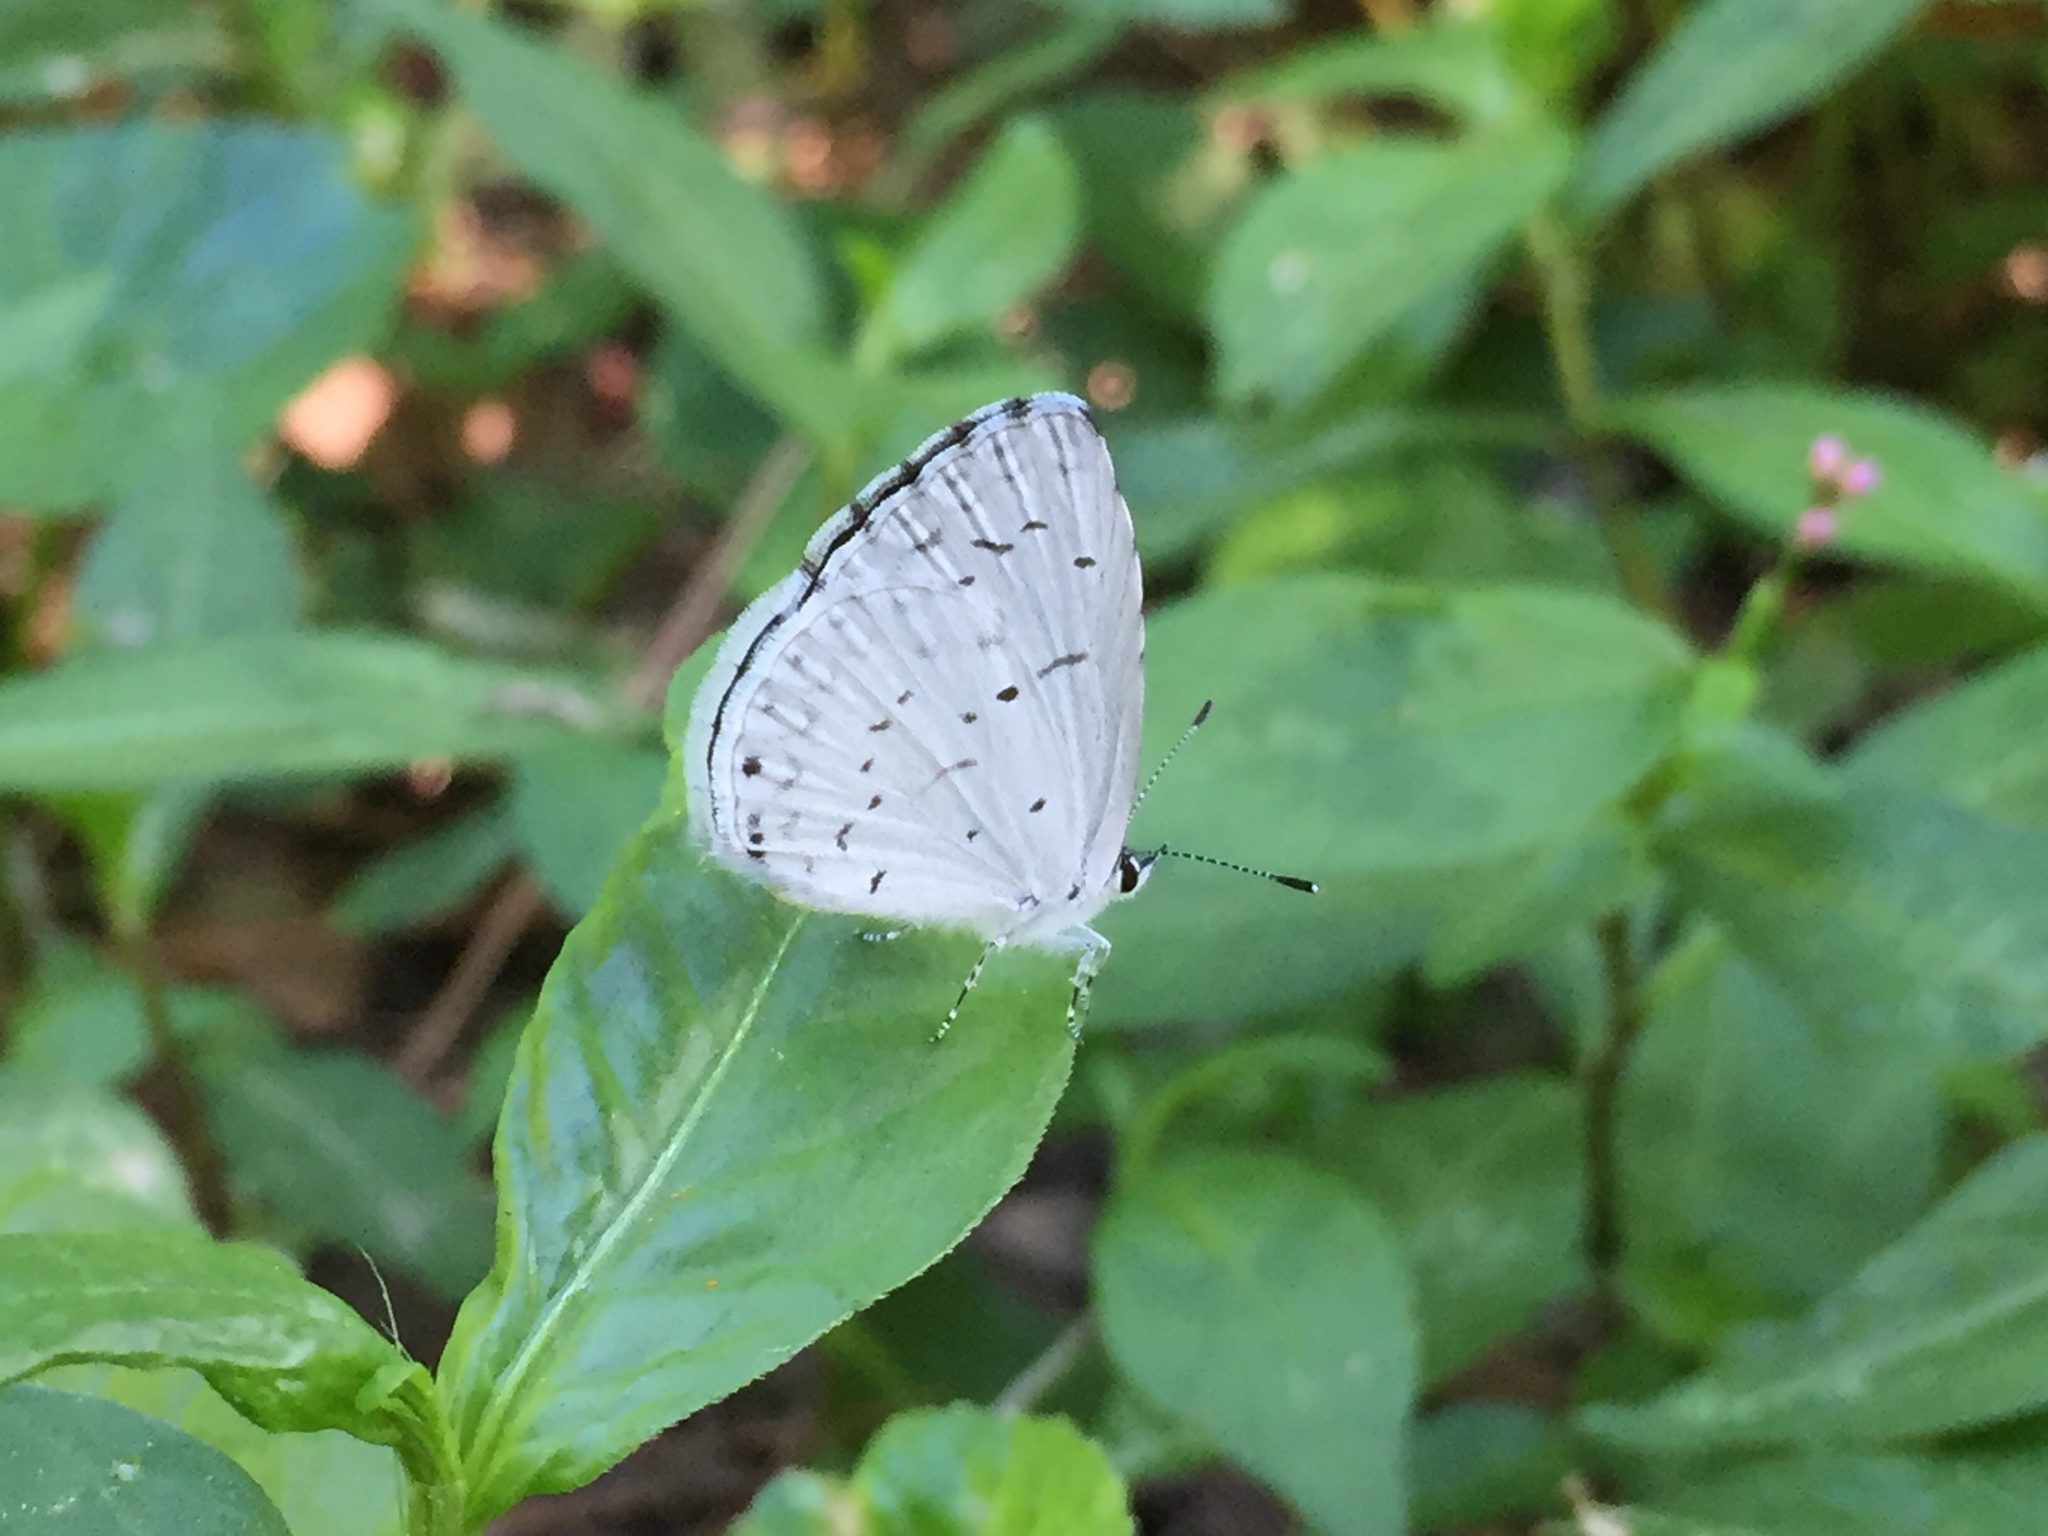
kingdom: Animalia
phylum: Arthropoda
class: Insecta
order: Lepidoptera
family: Lycaenidae
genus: Cyaniris
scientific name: Cyaniris neglecta
